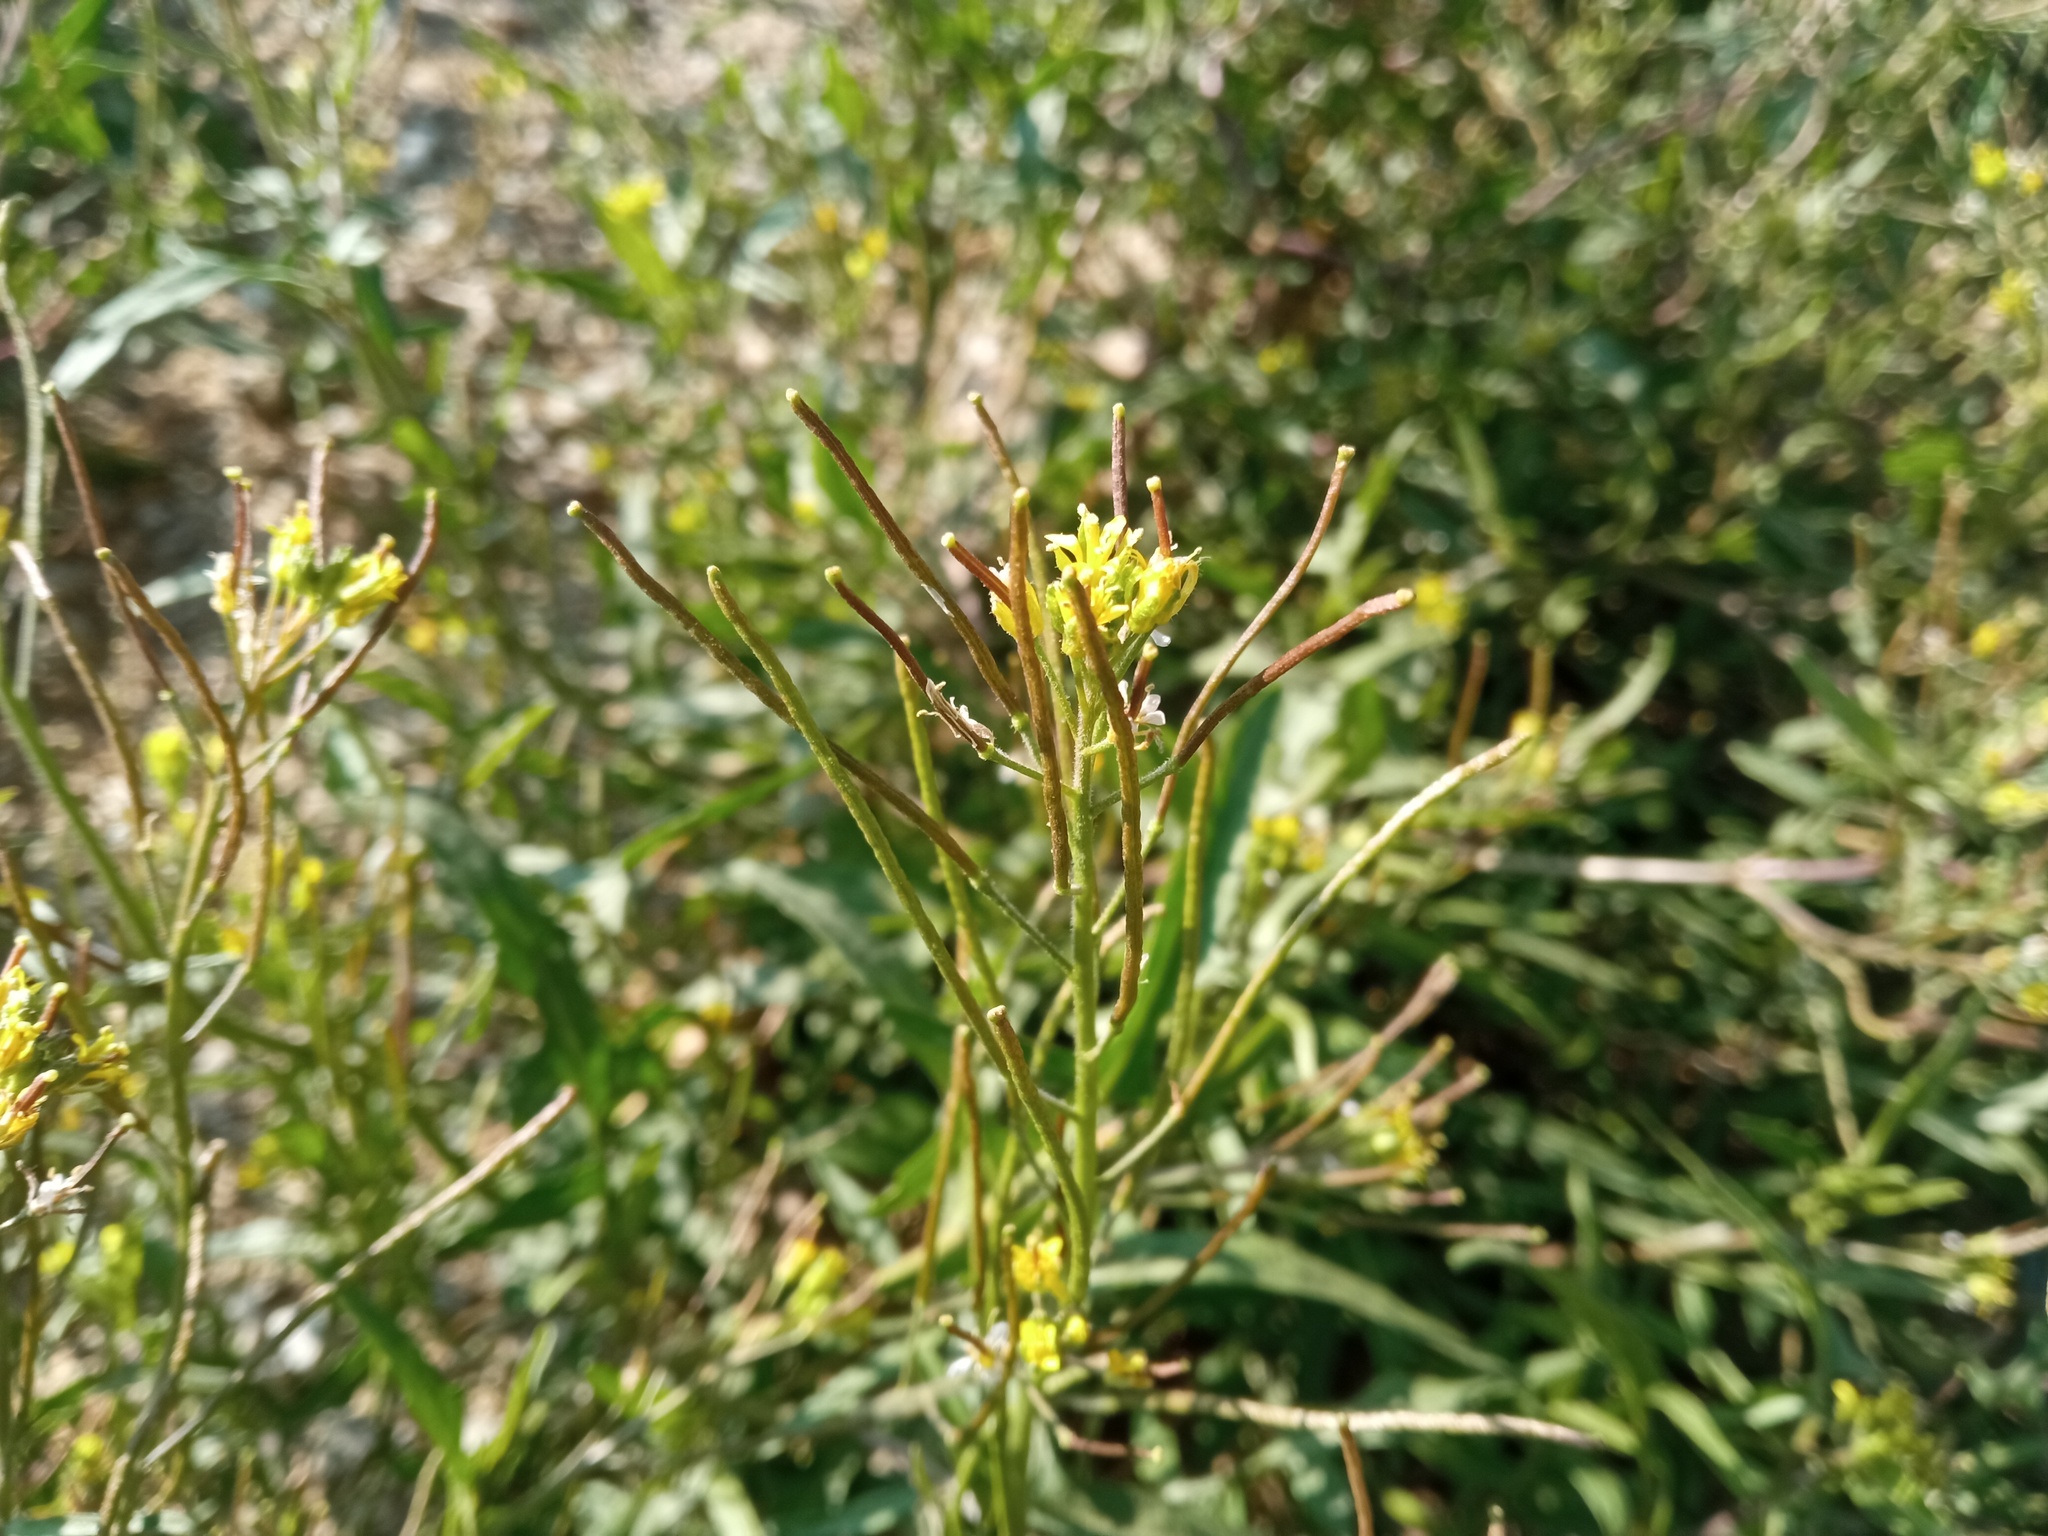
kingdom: Plantae
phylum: Tracheophyta
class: Magnoliopsida
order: Brassicales
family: Brassicaceae
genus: Sisymbrium
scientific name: Sisymbrium irio
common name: London rocket
